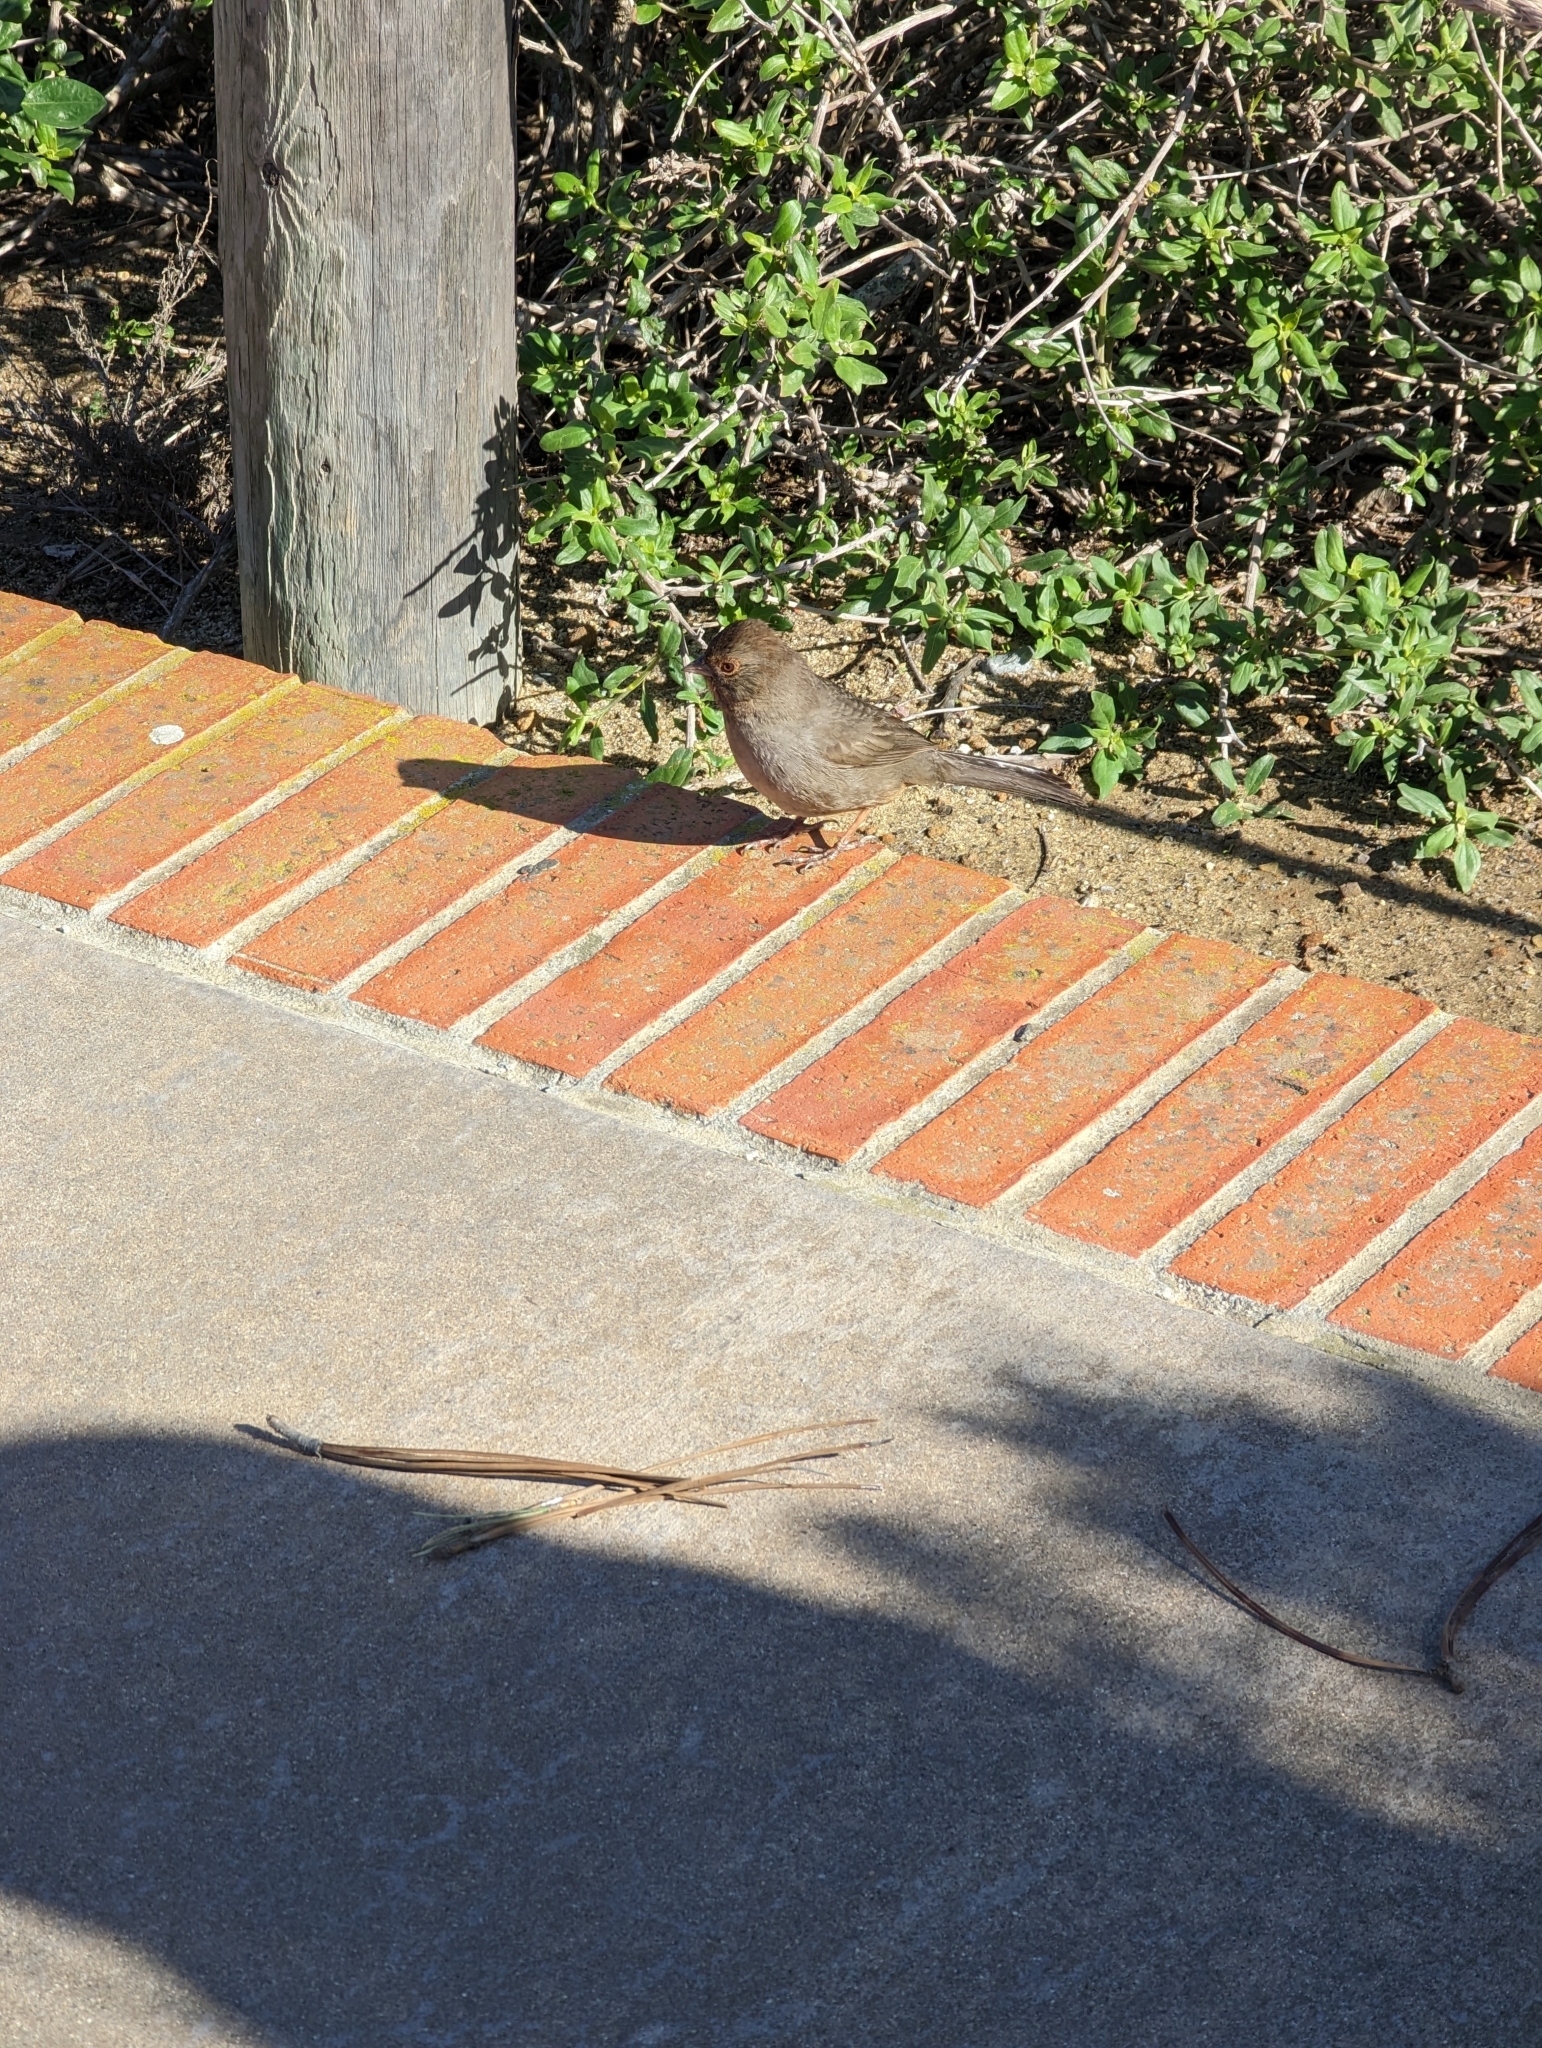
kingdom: Animalia
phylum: Chordata
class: Aves
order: Passeriformes
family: Passerellidae
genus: Melozone
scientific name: Melozone crissalis
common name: California towhee
